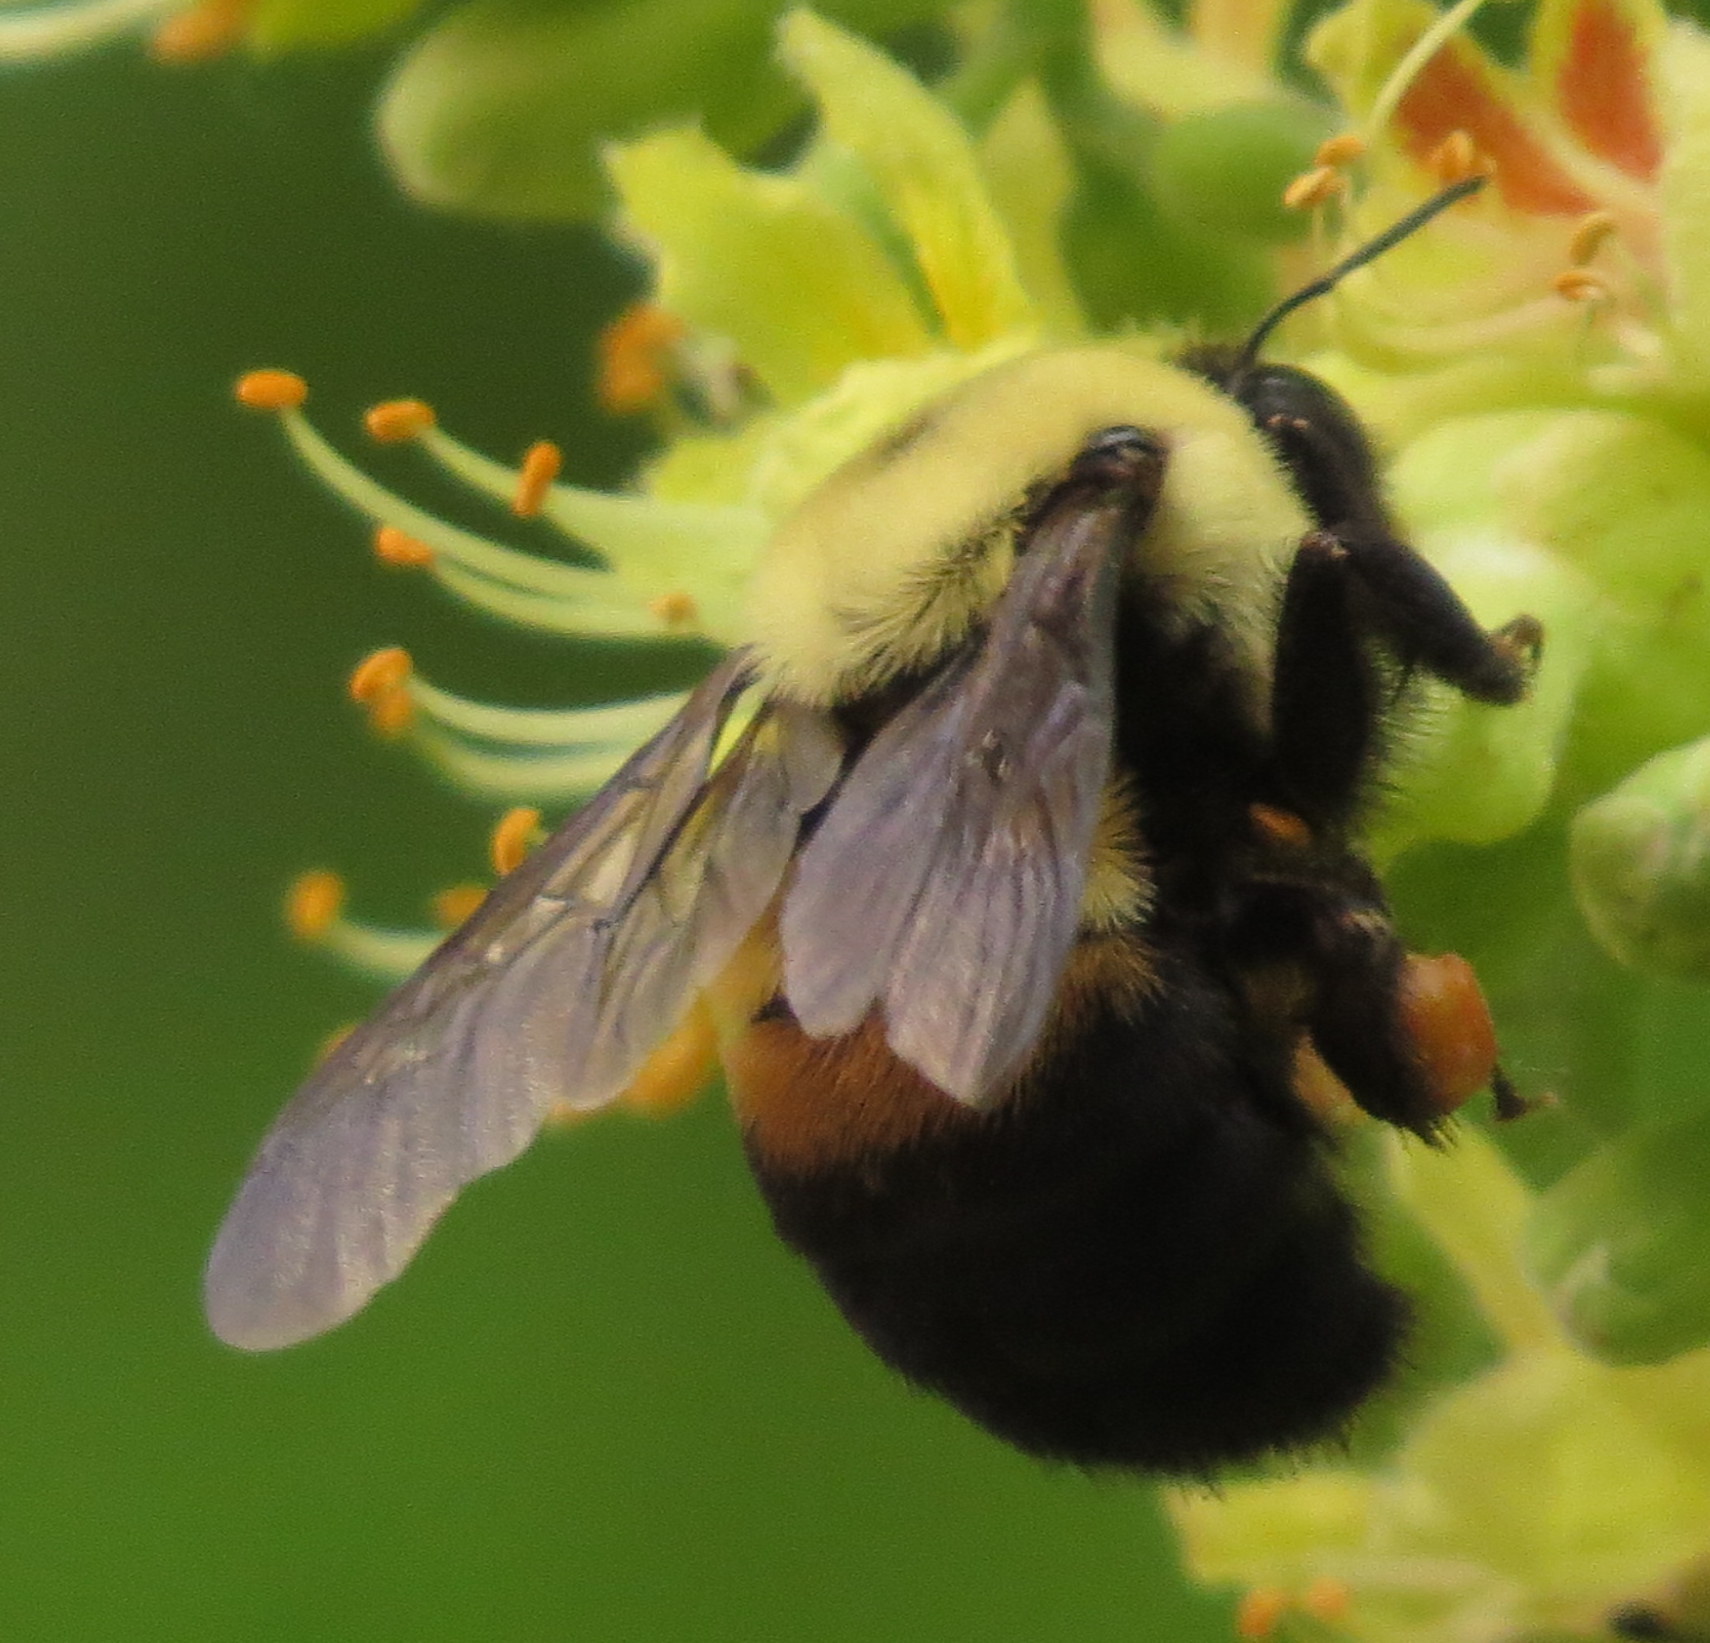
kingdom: Animalia
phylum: Arthropoda
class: Insecta
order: Hymenoptera
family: Apidae
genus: Bombus
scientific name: Bombus griseocollis
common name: Brown-belted bumble bee
